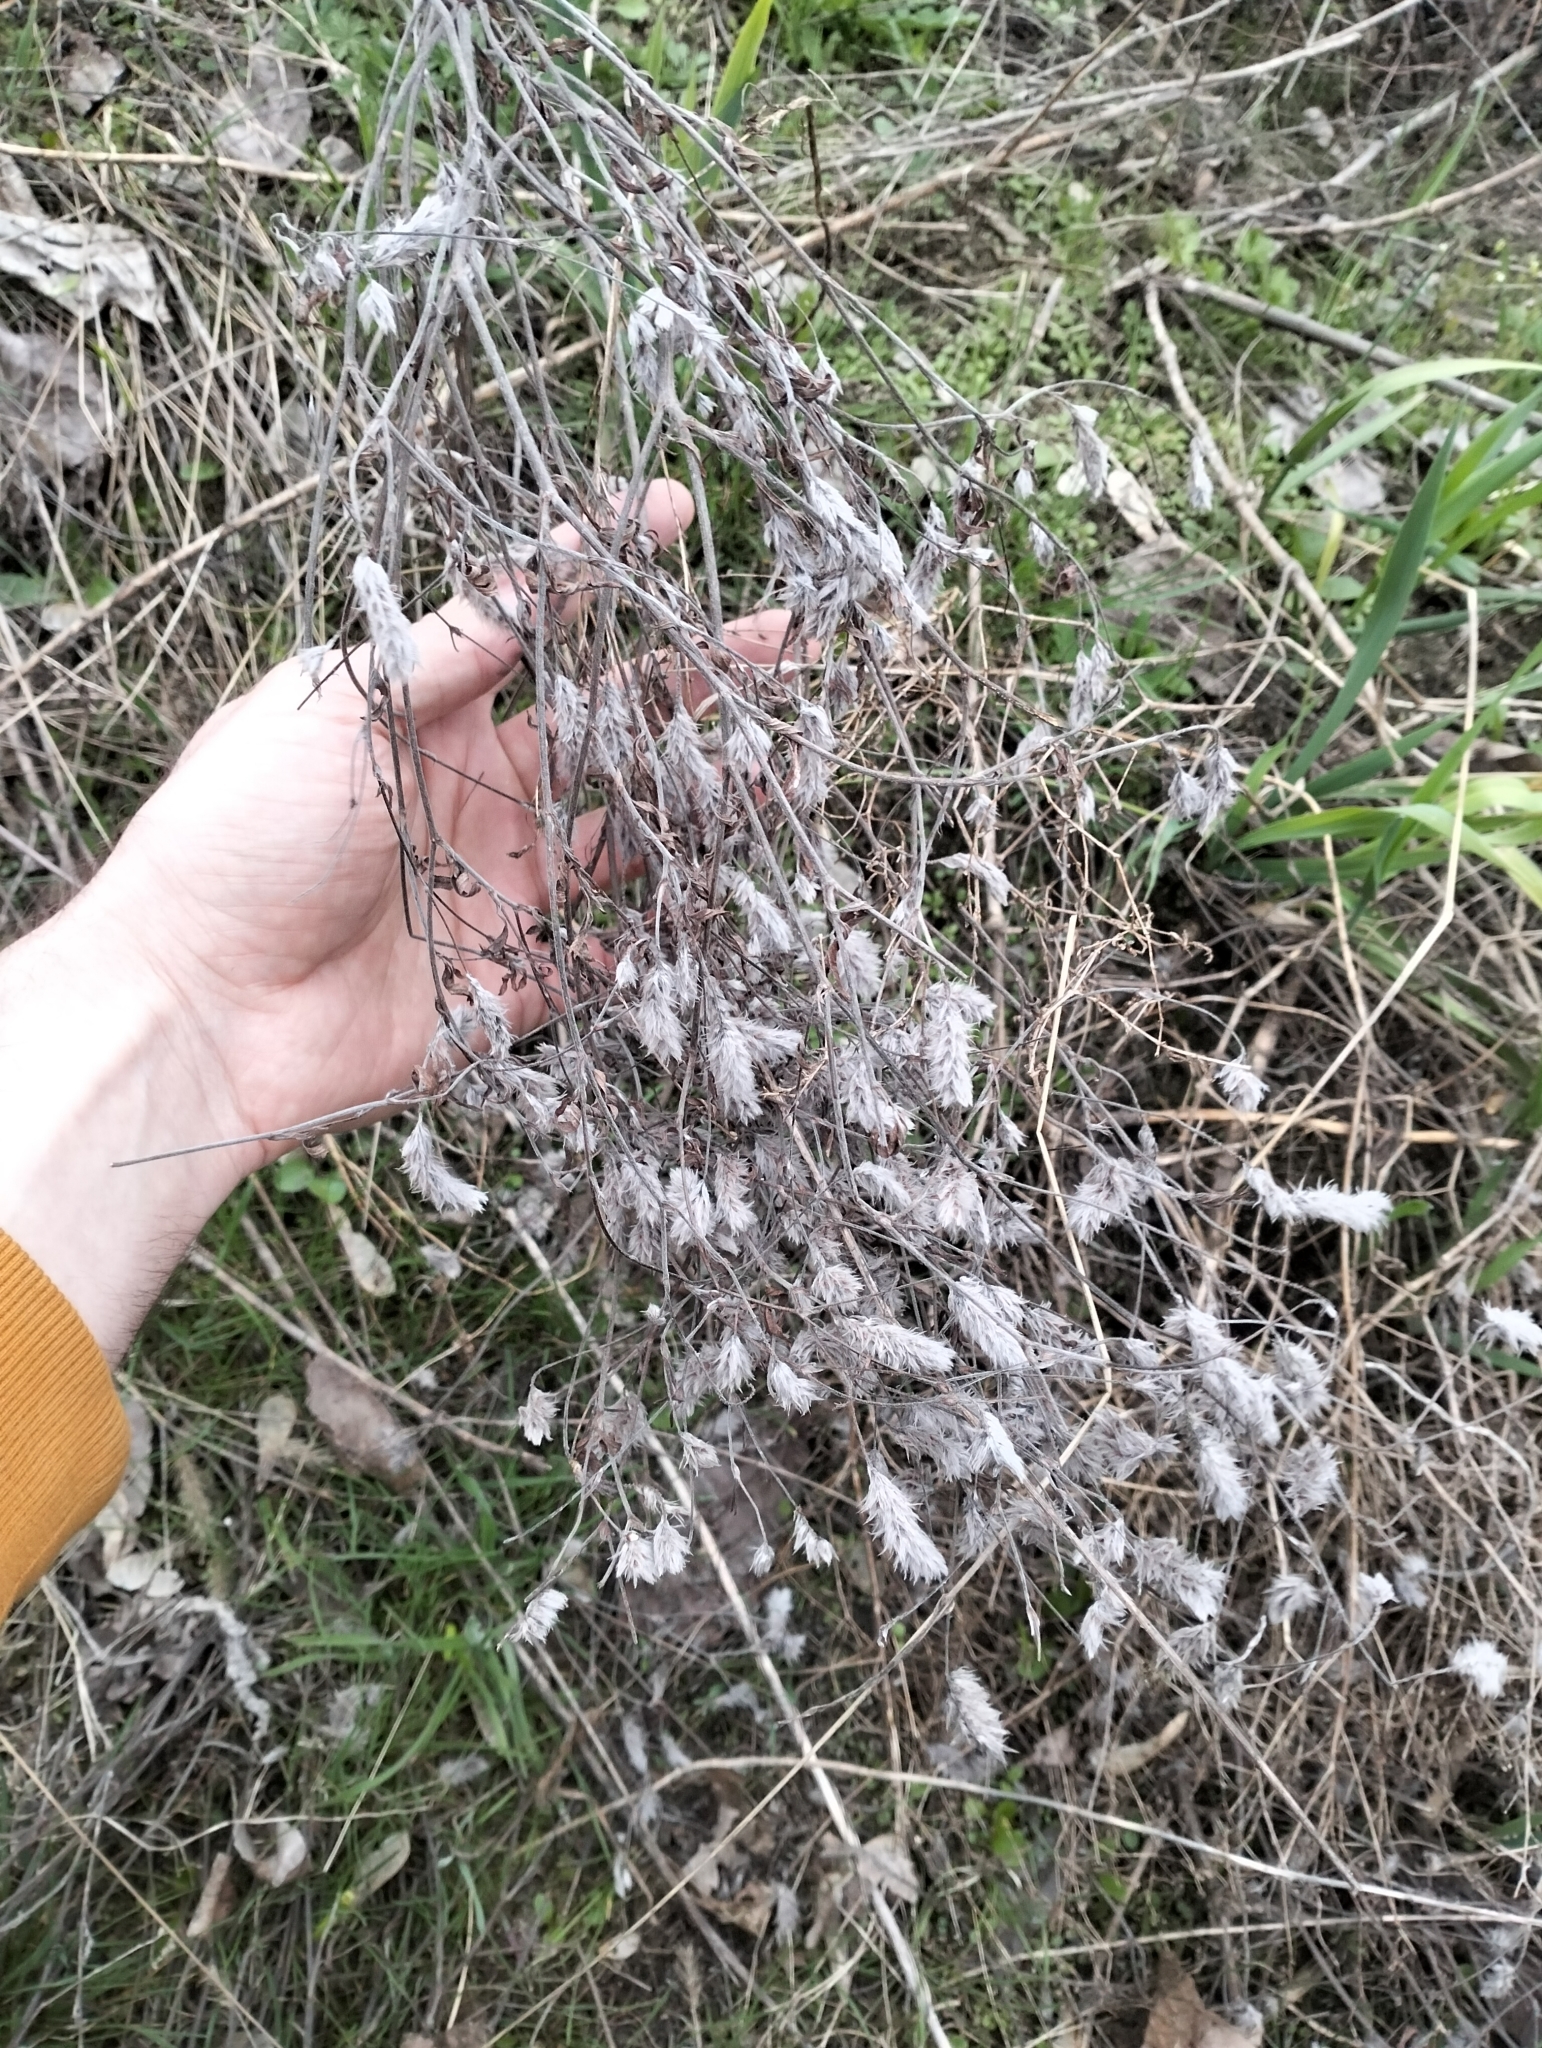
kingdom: Plantae
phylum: Tracheophyta
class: Magnoliopsida
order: Fabales
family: Fabaceae
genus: Trifolium
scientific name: Trifolium arvense
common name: Hare's-foot clover
